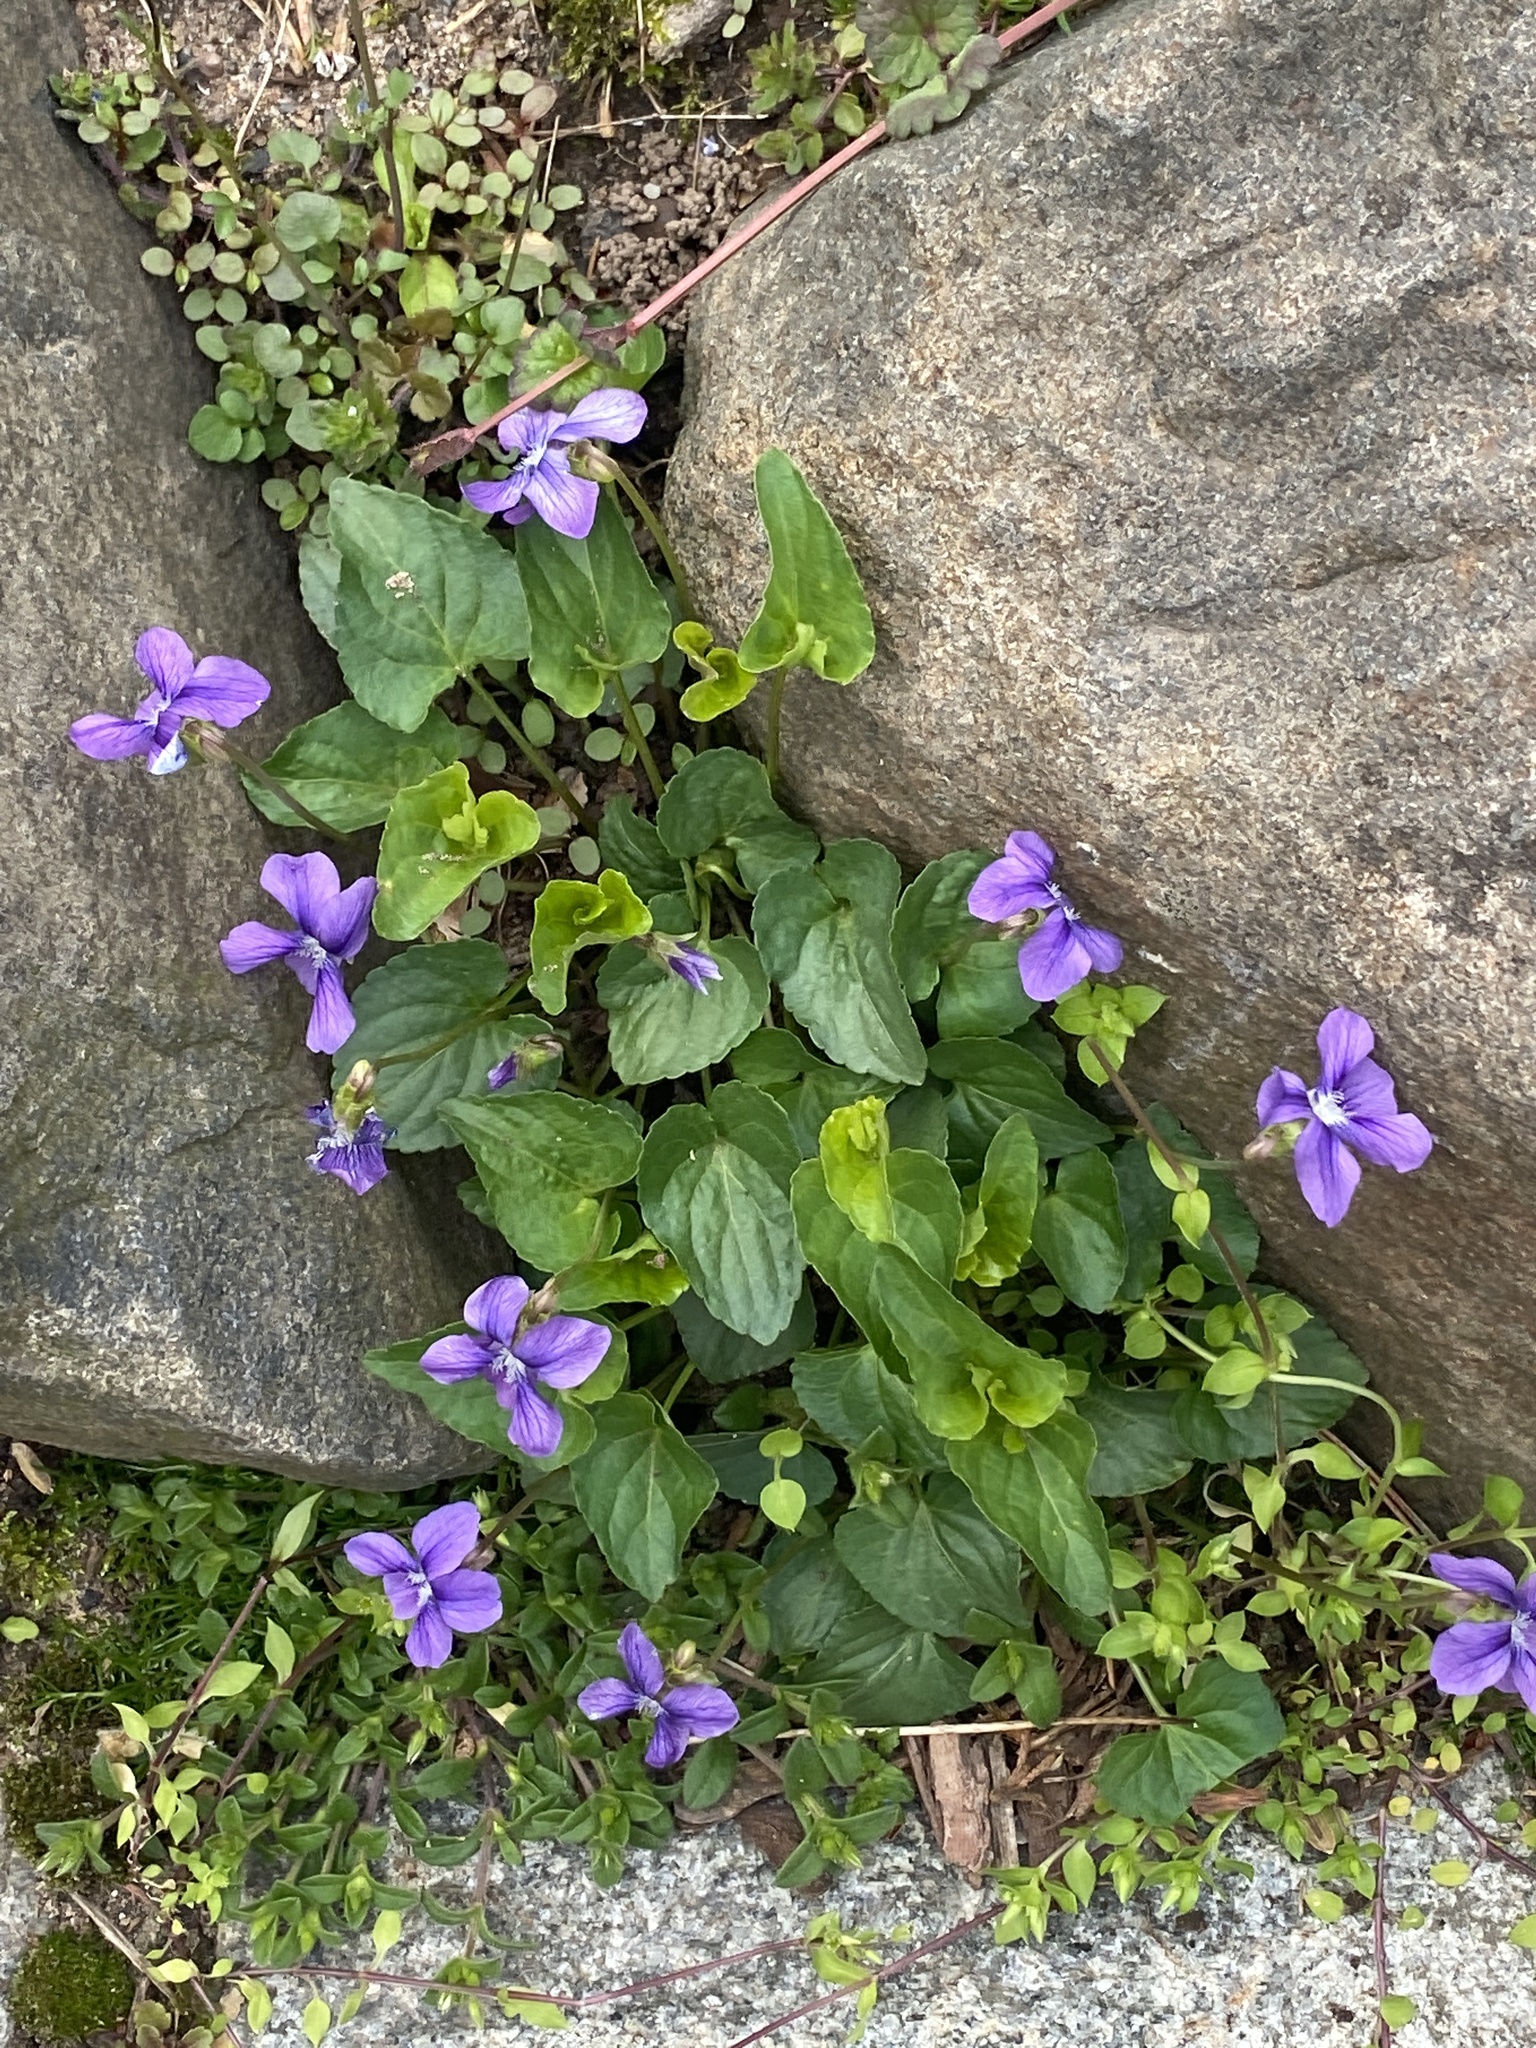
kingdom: Plantae
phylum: Tracheophyta
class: Magnoliopsida
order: Malpighiales
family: Violaceae
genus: Viola
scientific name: Viola sororia
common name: Dooryard violet
